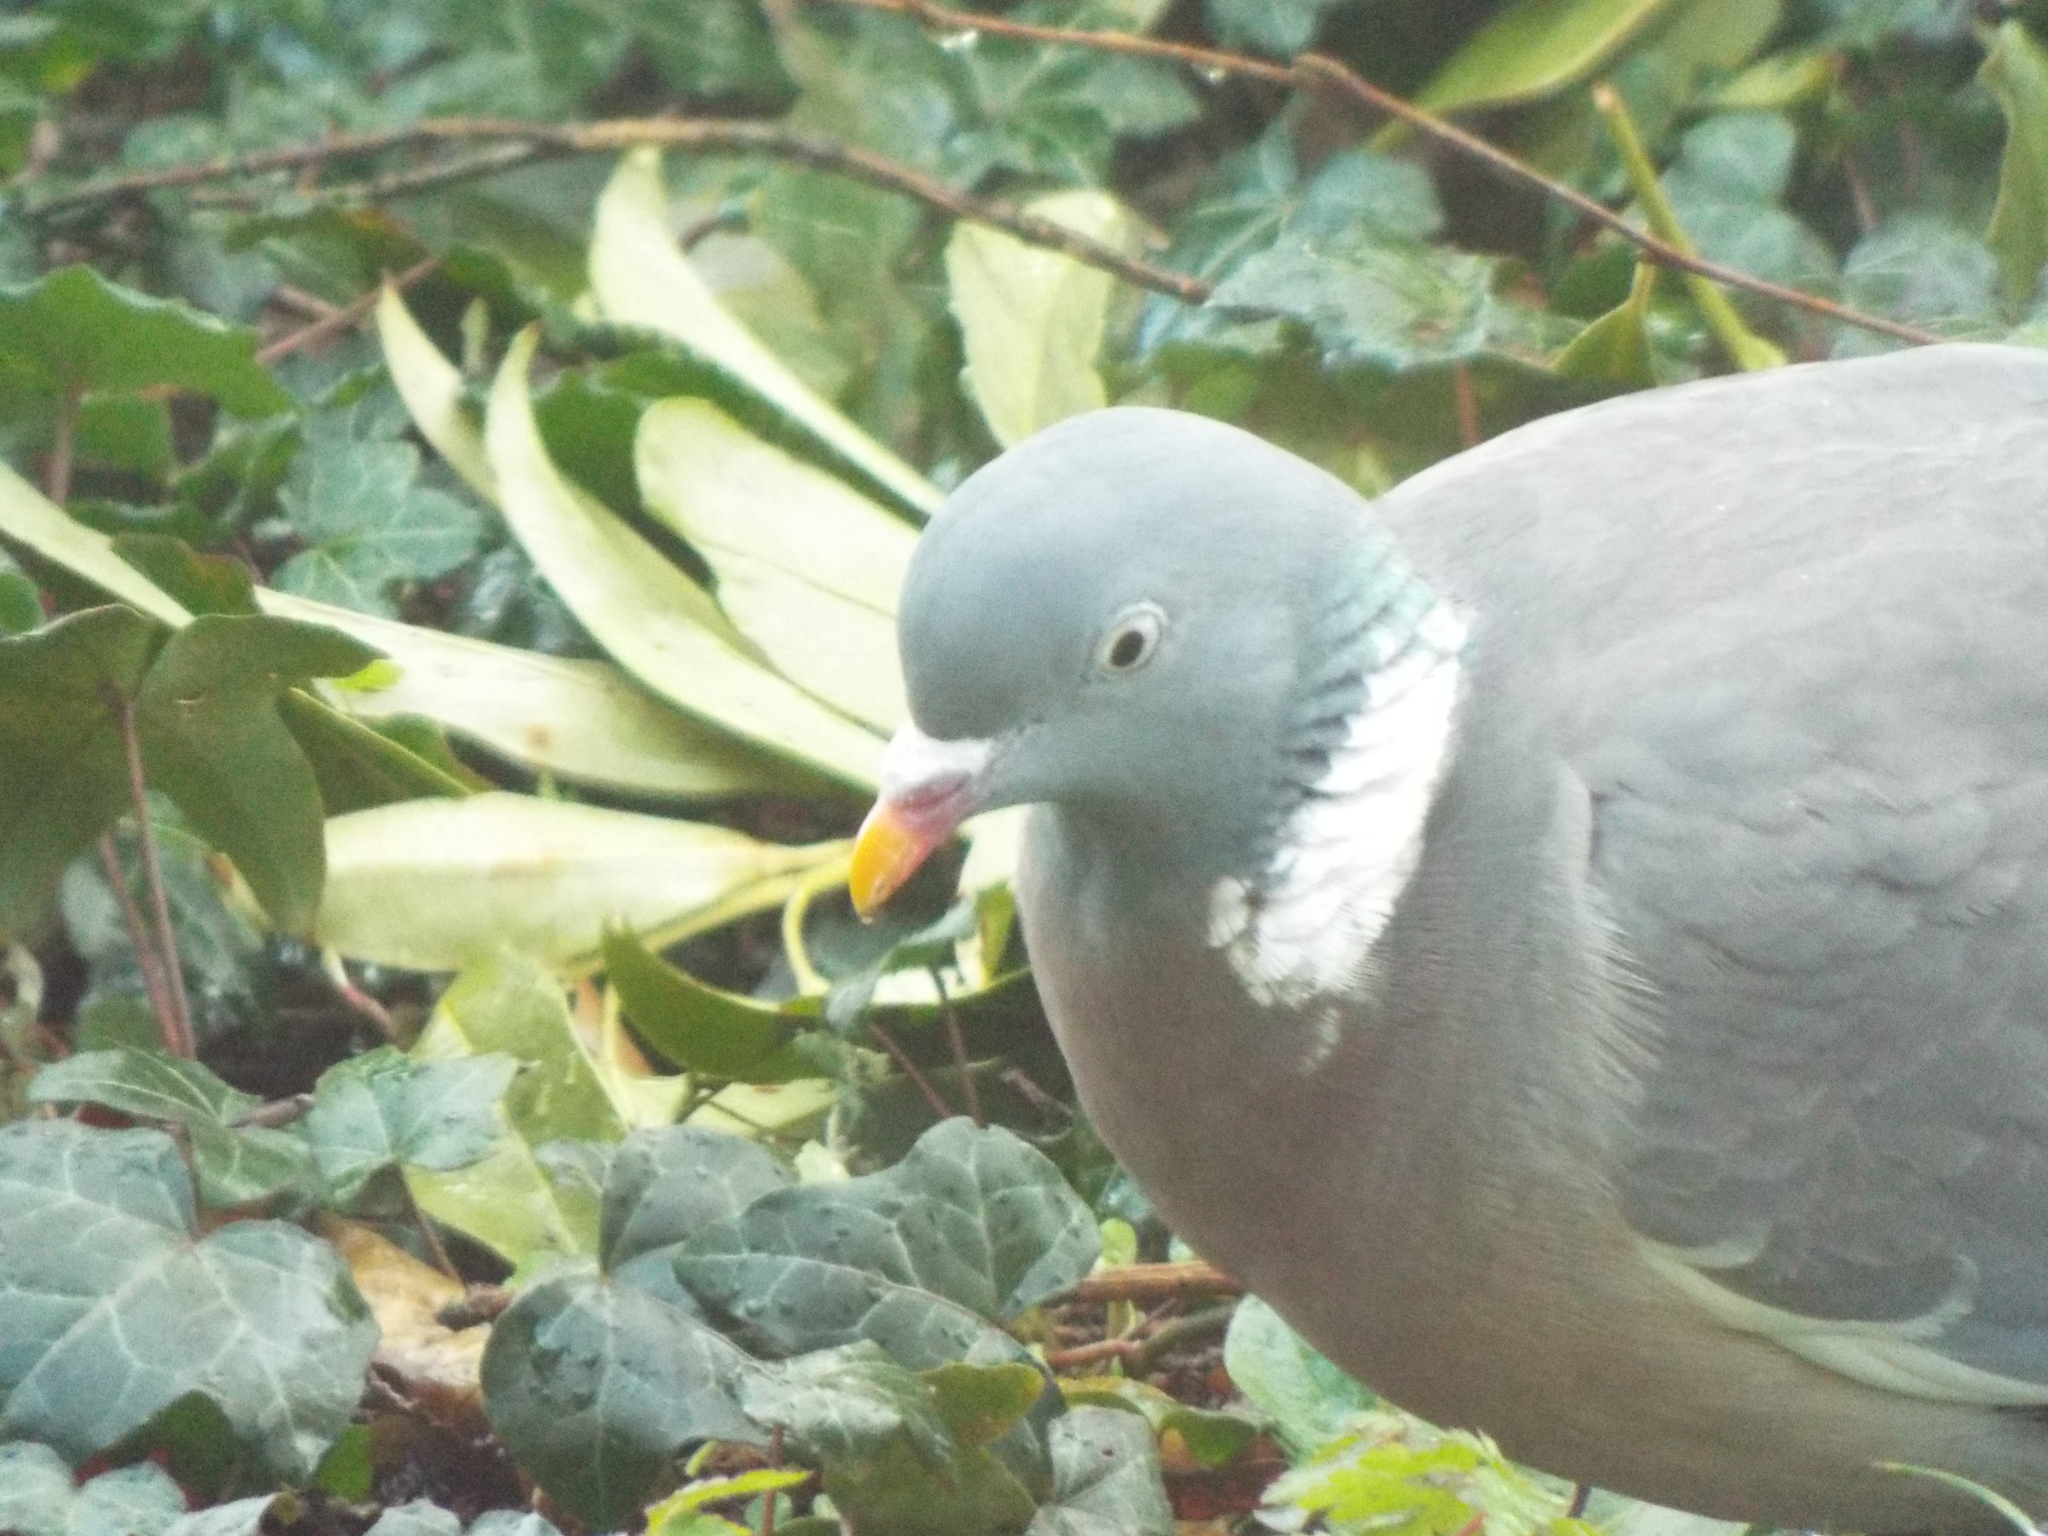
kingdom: Animalia
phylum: Chordata
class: Aves
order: Columbiformes
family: Columbidae
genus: Columba
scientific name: Columba palumbus
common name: Common wood pigeon
